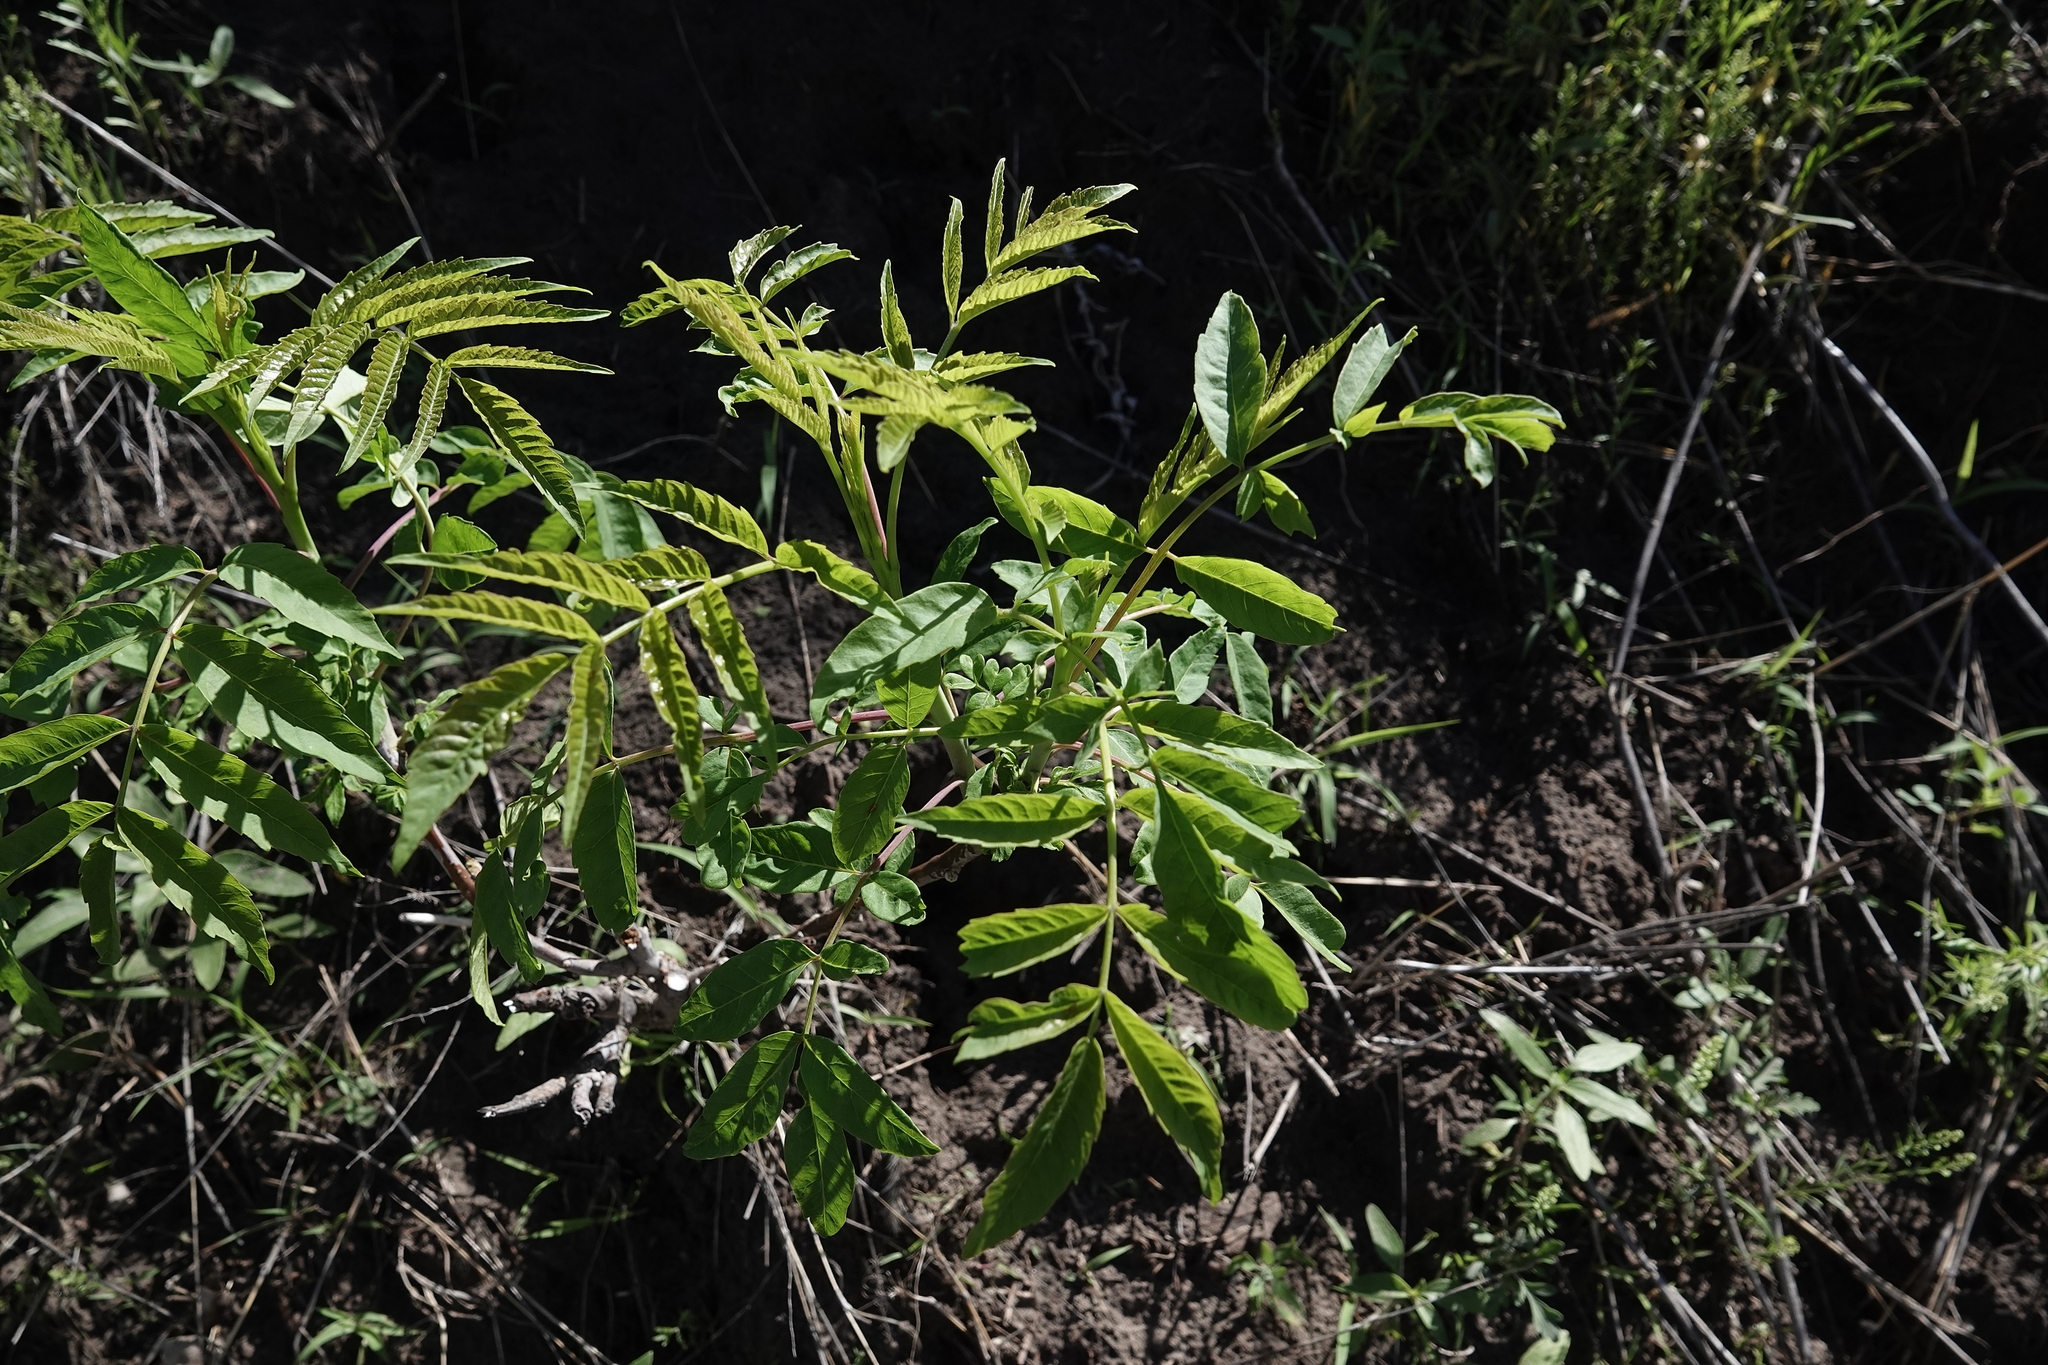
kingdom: Plantae
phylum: Tracheophyta
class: Magnoliopsida
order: Sapindales
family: Anacardiaceae
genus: Rhus
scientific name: Rhus glabra
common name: Scarlet sumac
